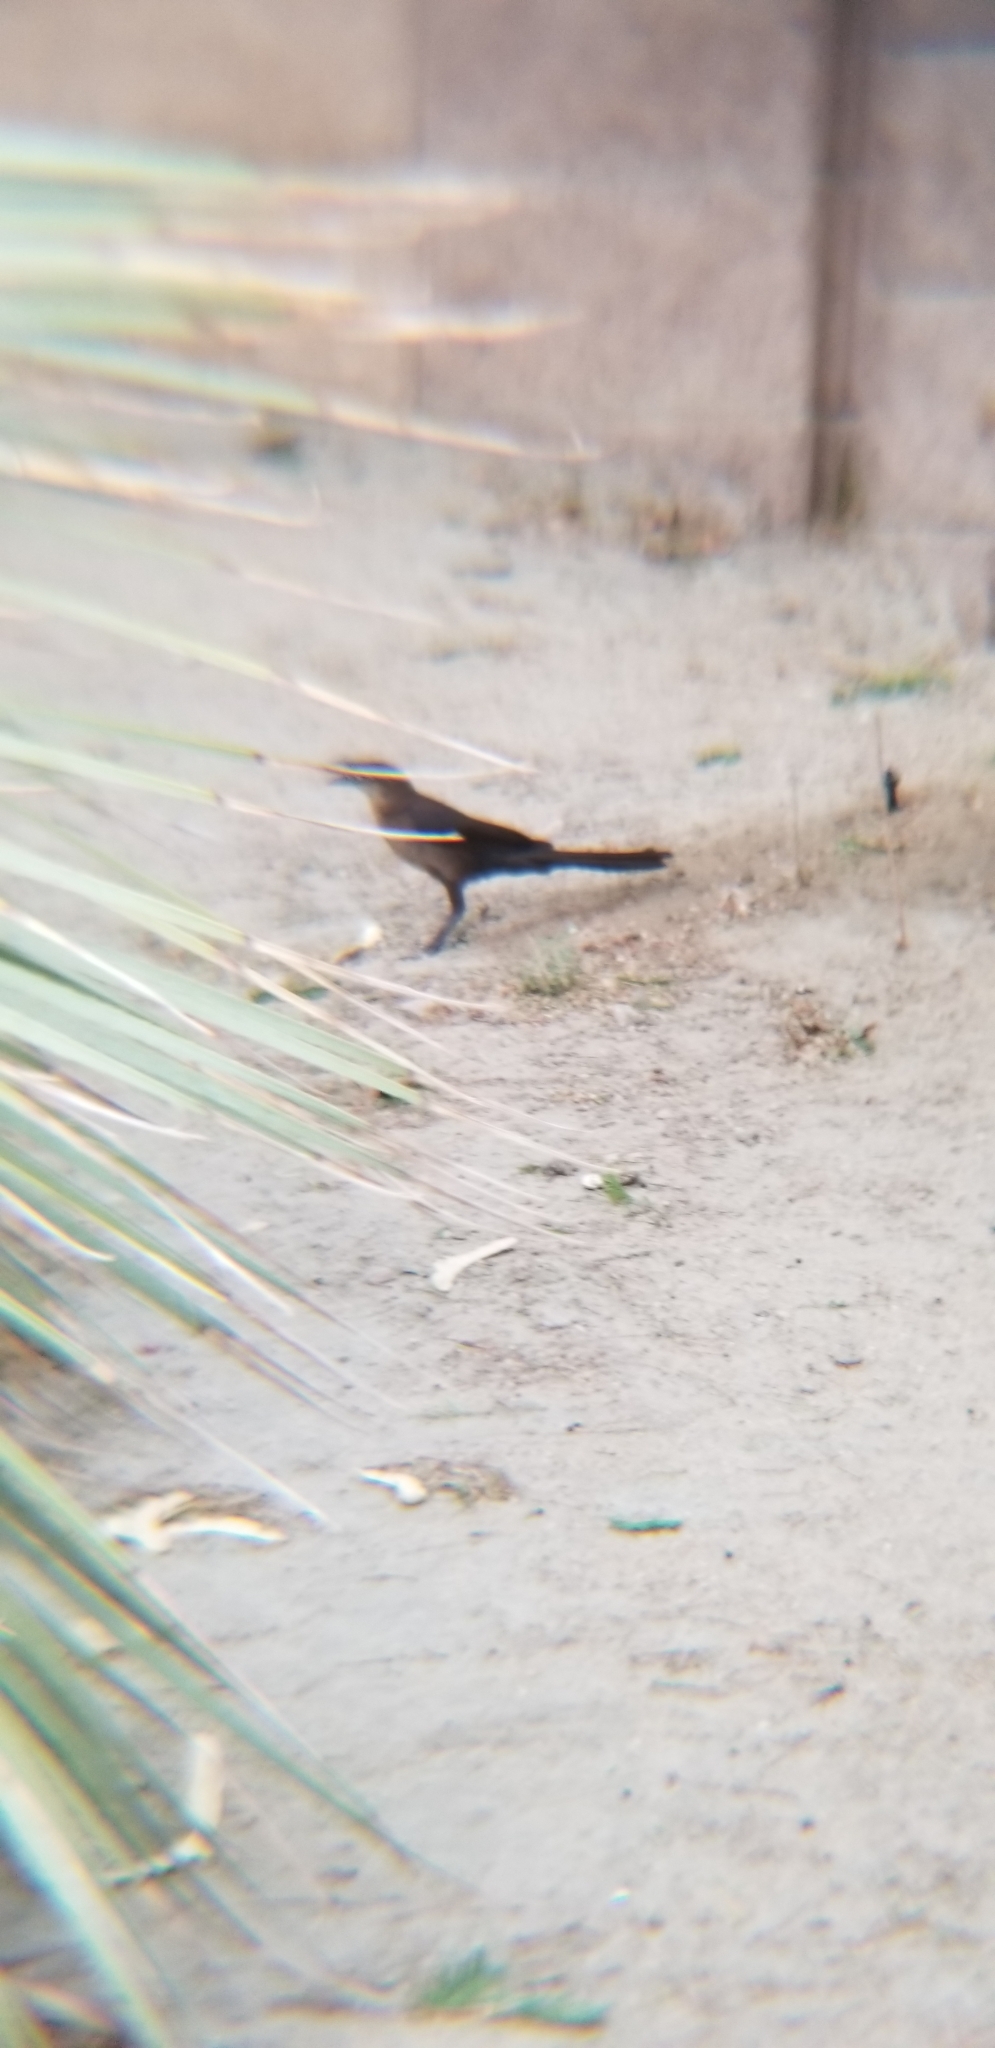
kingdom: Animalia
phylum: Chordata
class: Aves
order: Passeriformes
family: Icteridae
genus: Quiscalus
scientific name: Quiscalus mexicanus
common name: Great-tailed grackle
